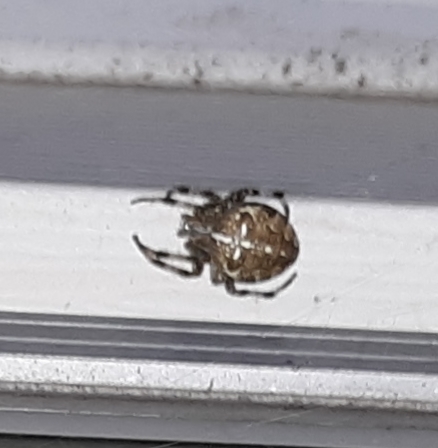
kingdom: Animalia
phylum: Arthropoda
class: Arachnida
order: Araneae
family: Araneidae
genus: Araneus
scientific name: Araneus diadematus
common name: Cross orbweaver
